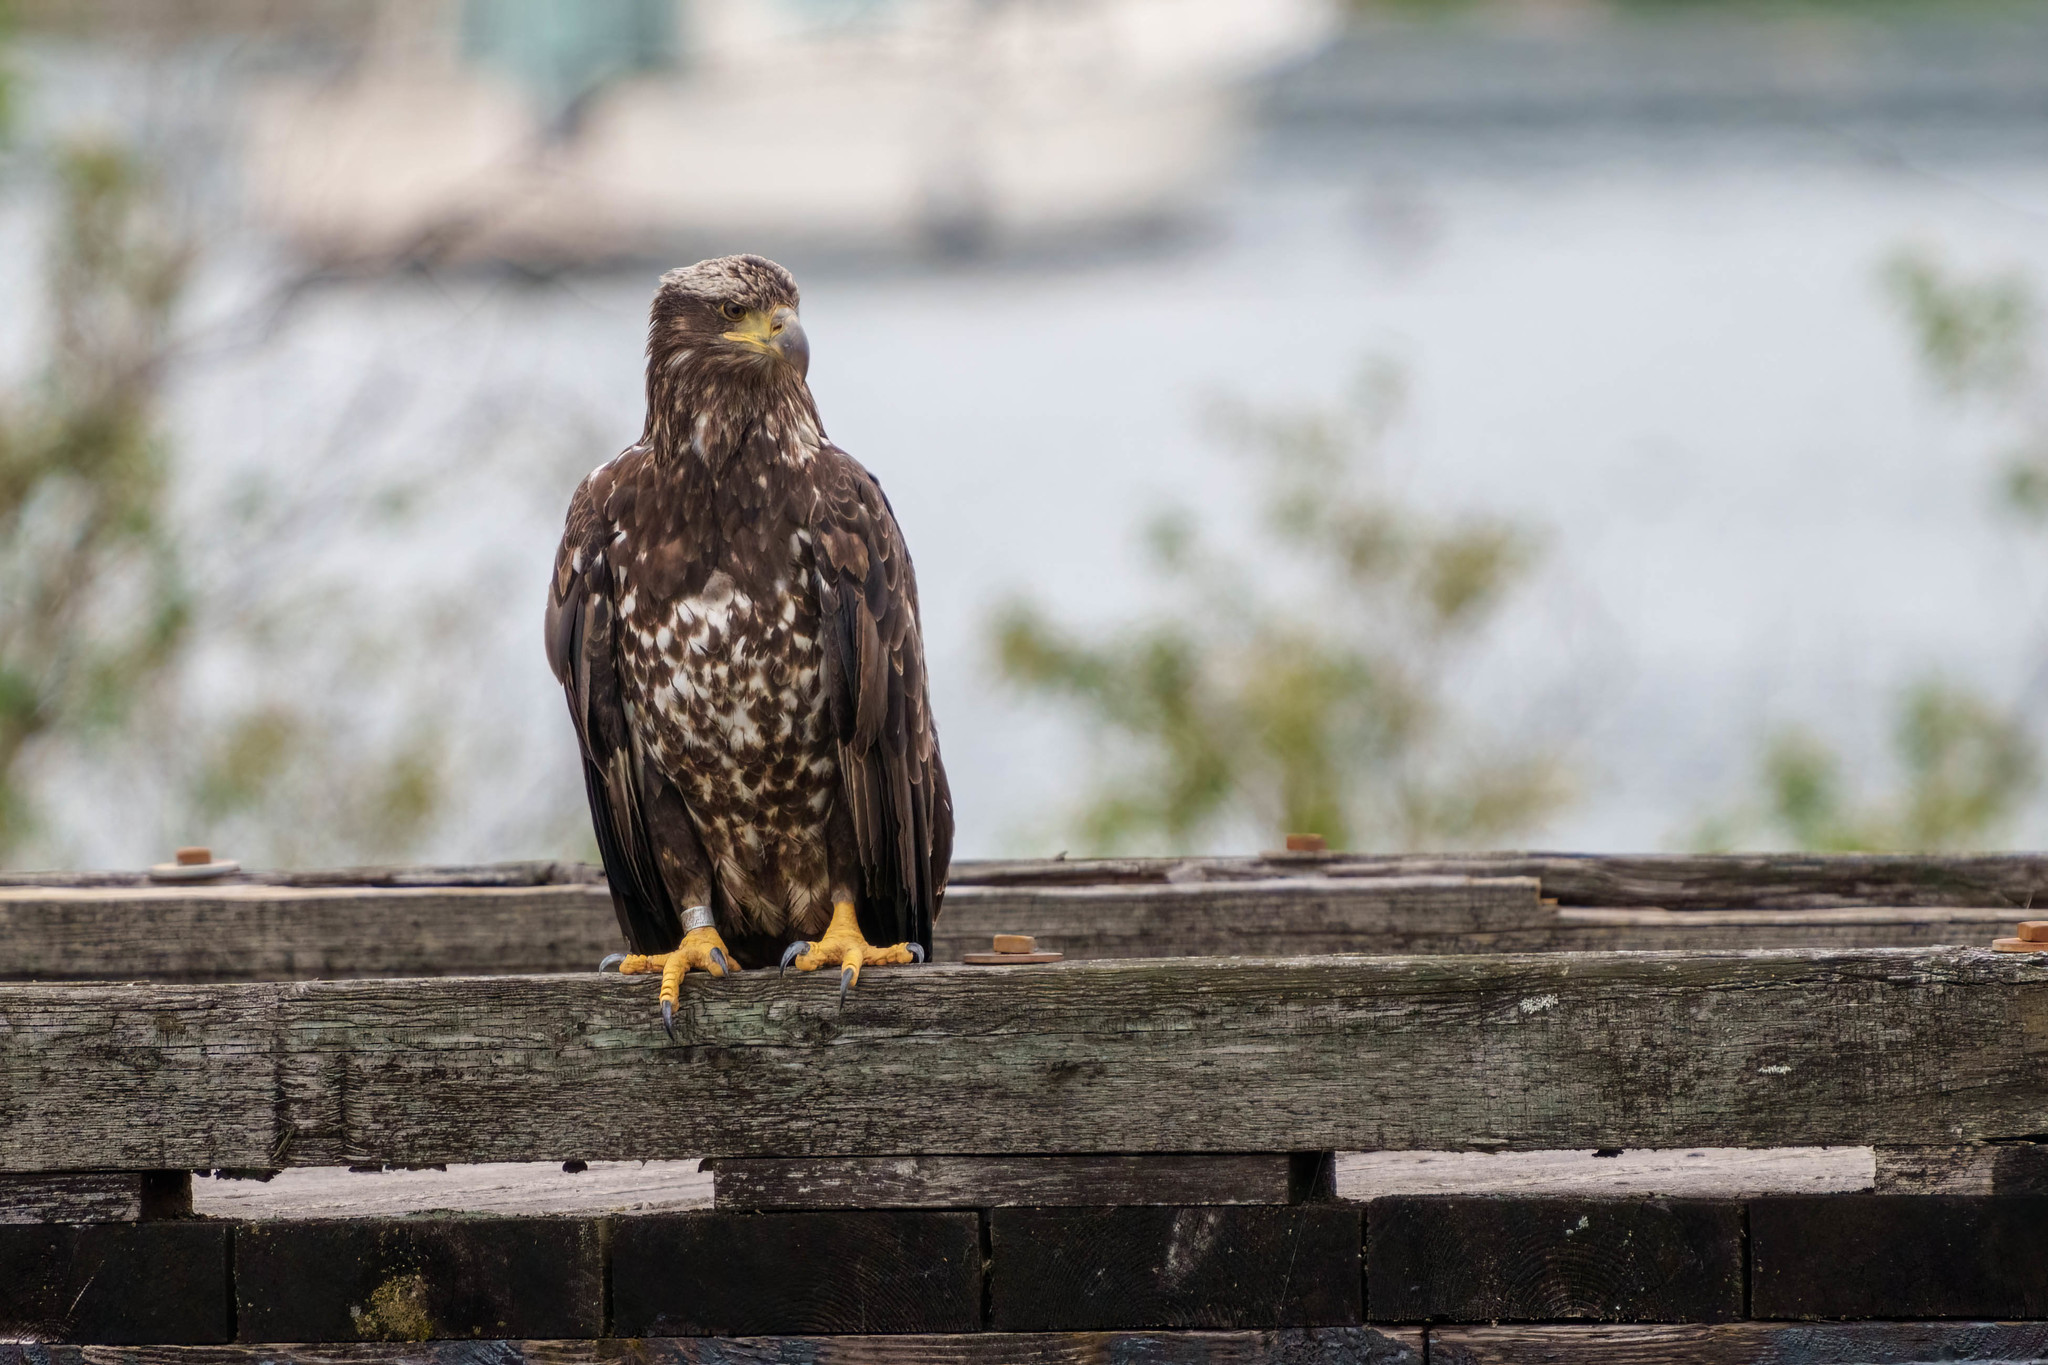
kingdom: Animalia
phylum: Chordata
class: Aves
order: Accipitriformes
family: Accipitridae
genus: Haliaeetus
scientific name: Haliaeetus leucocephalus
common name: Bald eagle
